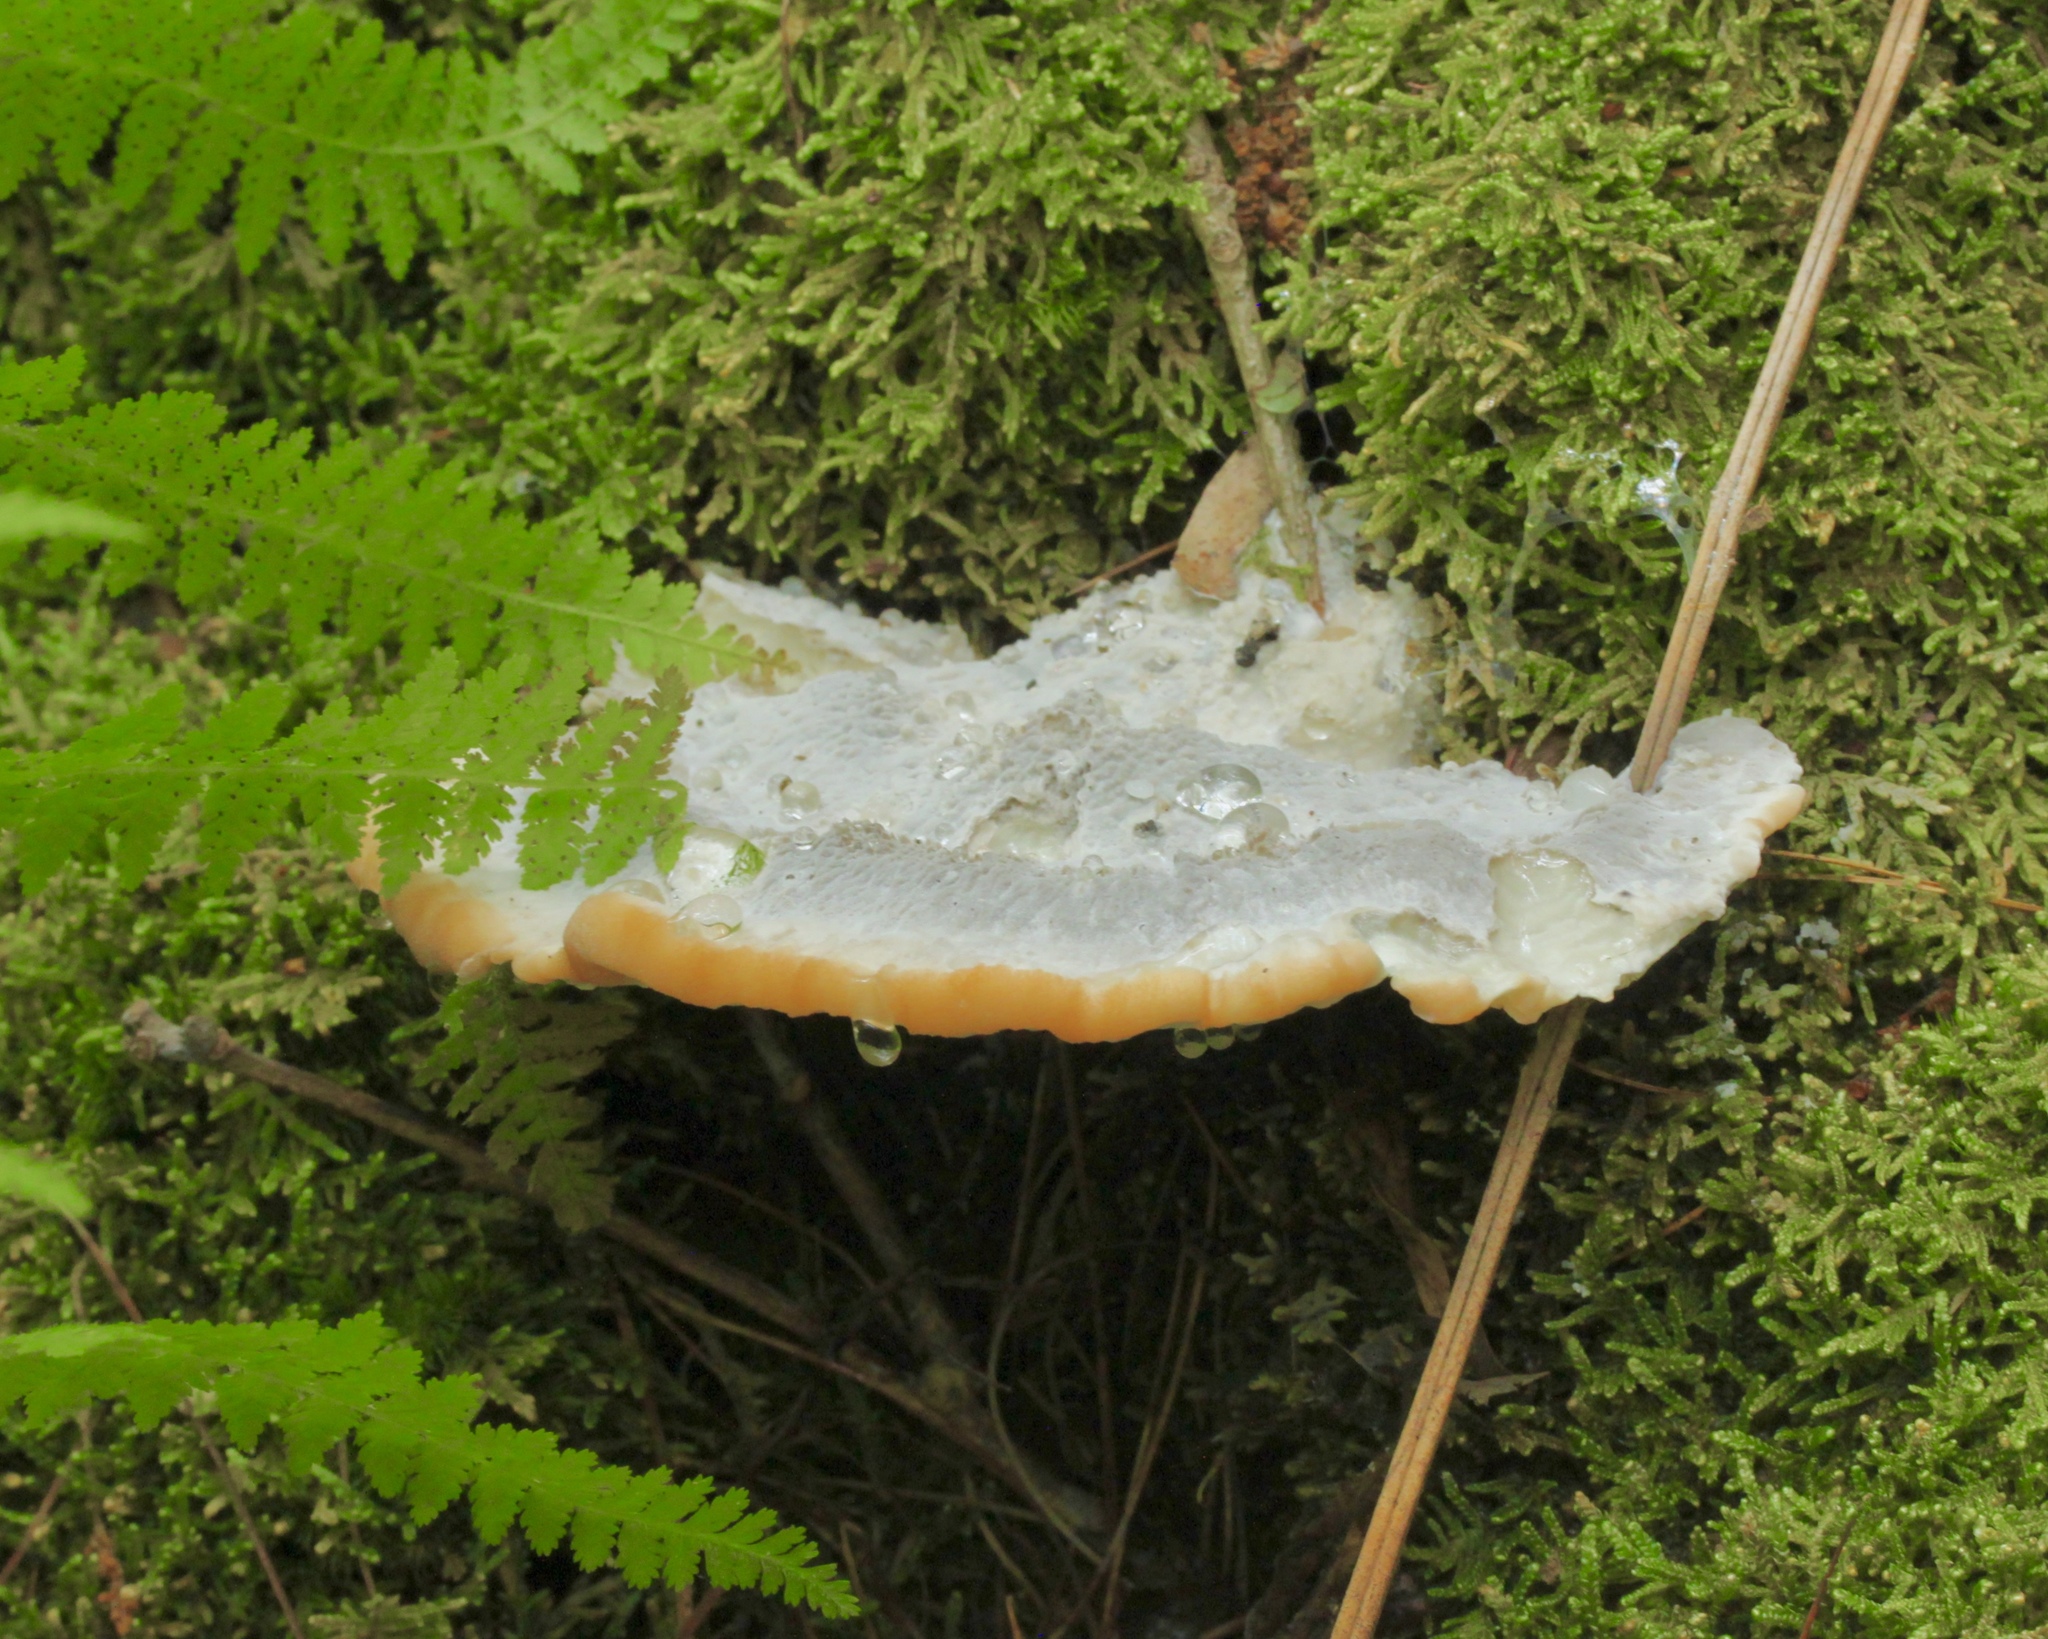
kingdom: Fungi
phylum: Basidiomycota
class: Agaricomycetes
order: Polyporales
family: Fomitopsidaceae
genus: Niveoporofomes
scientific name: Niveoporofomes spraguei
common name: Green cheese polypore
